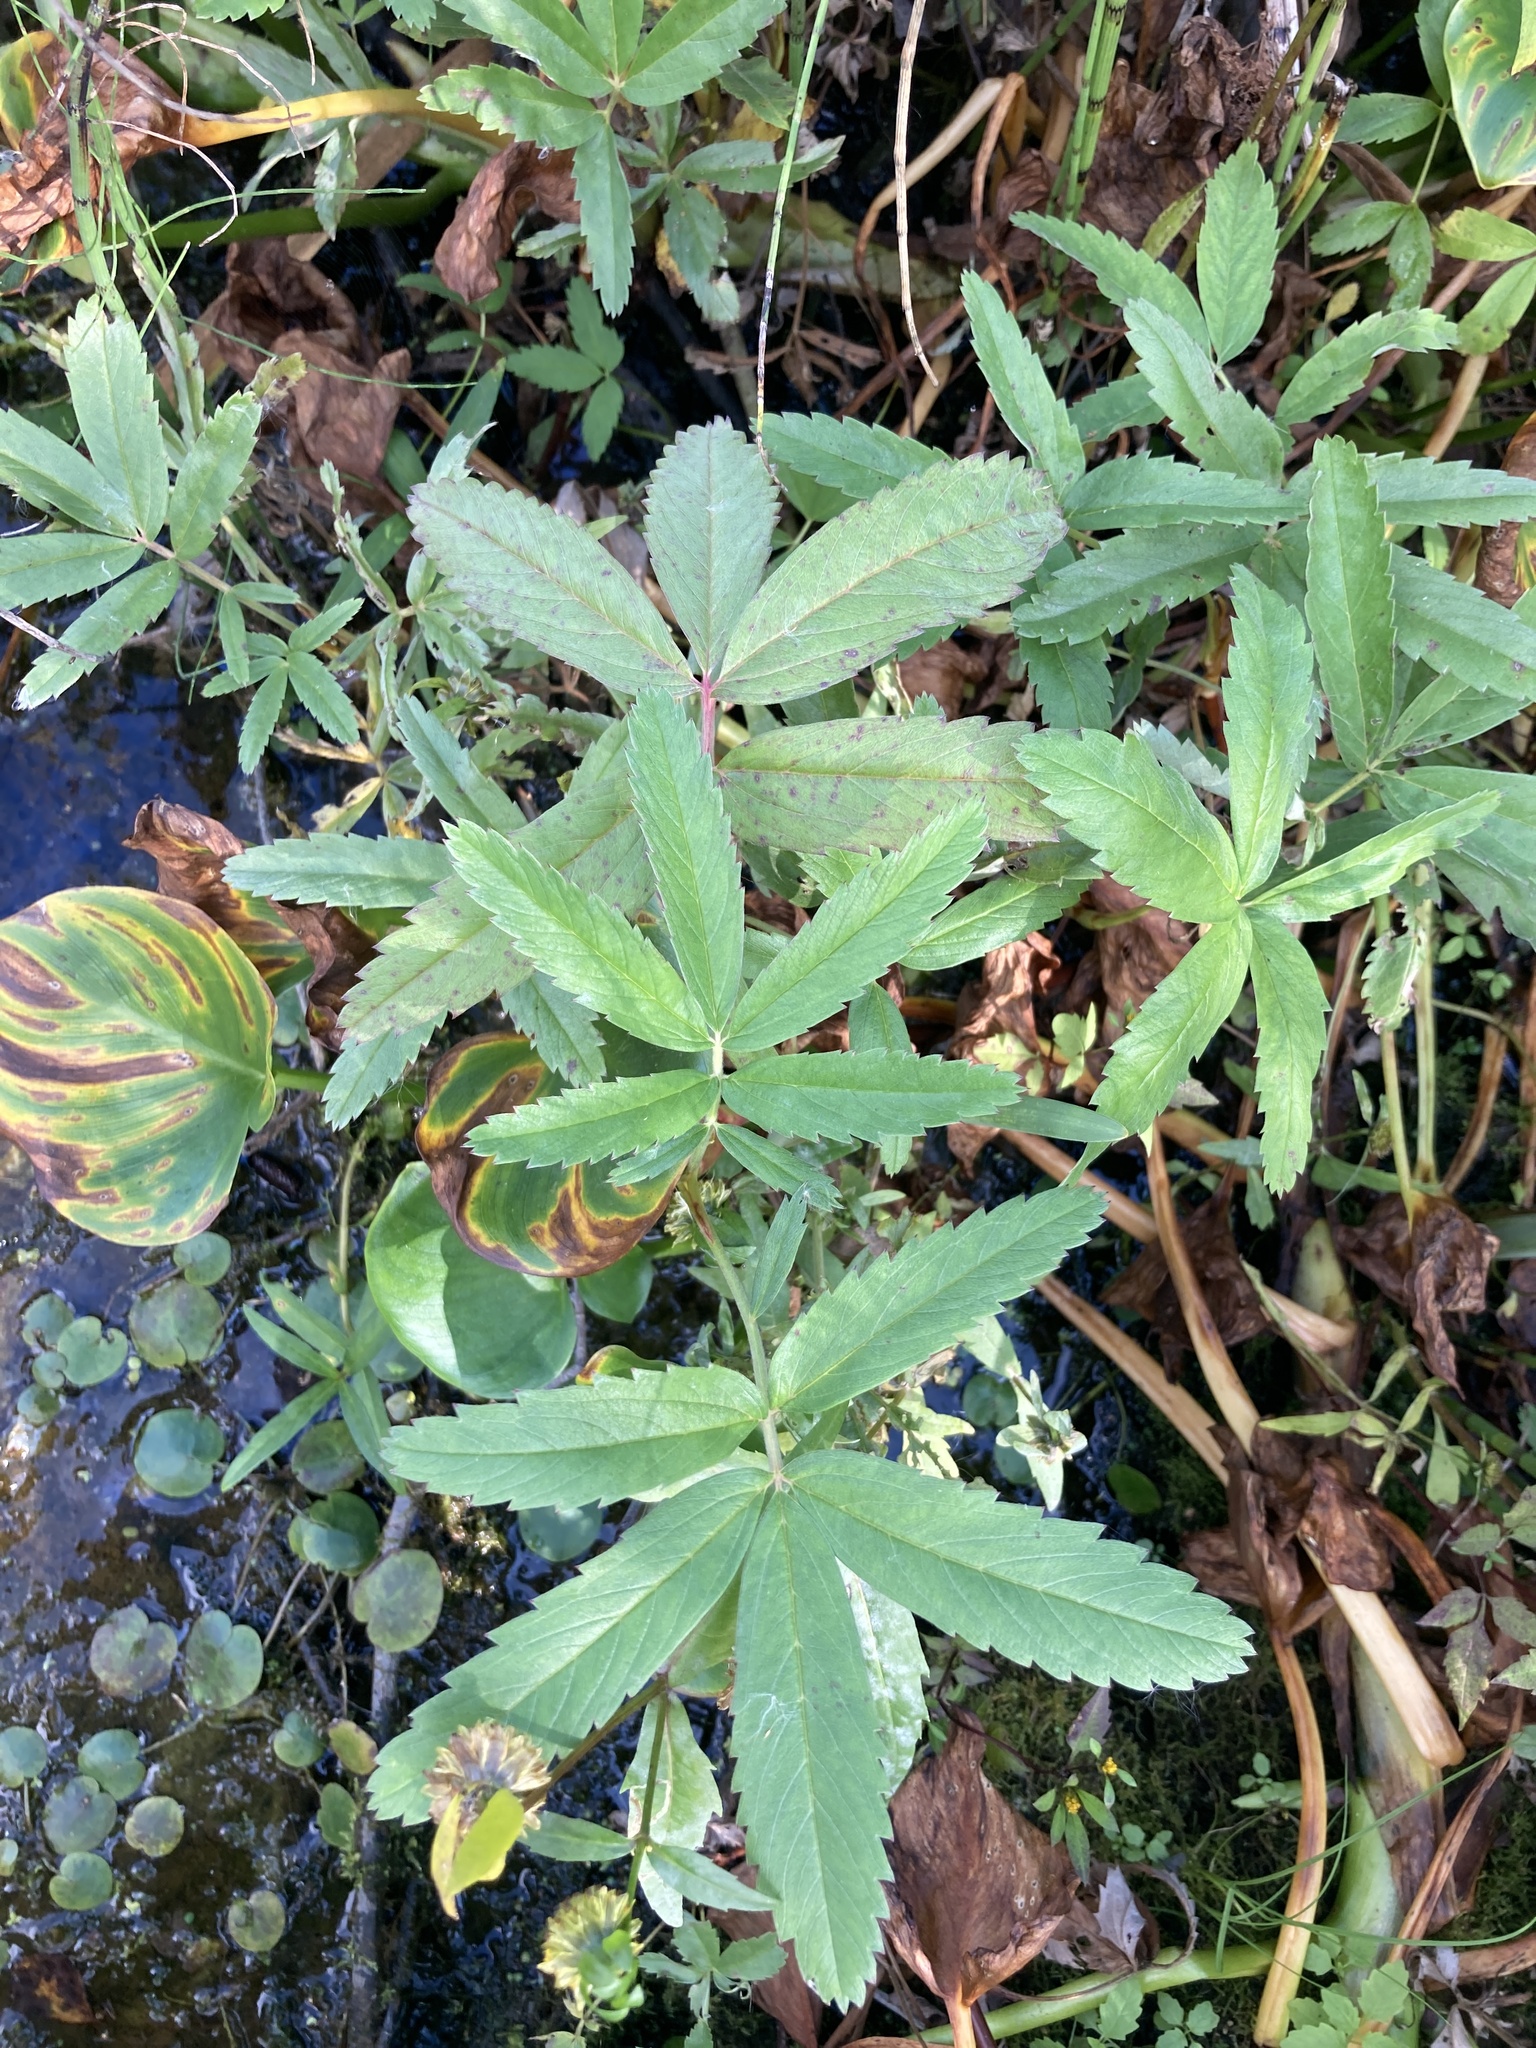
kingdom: Plantae
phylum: Tracheophyta
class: Magnoliopsida
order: Rosales
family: Rosaceae
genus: Comarum
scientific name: Comarum palustre
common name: Marsh cinquefoil
